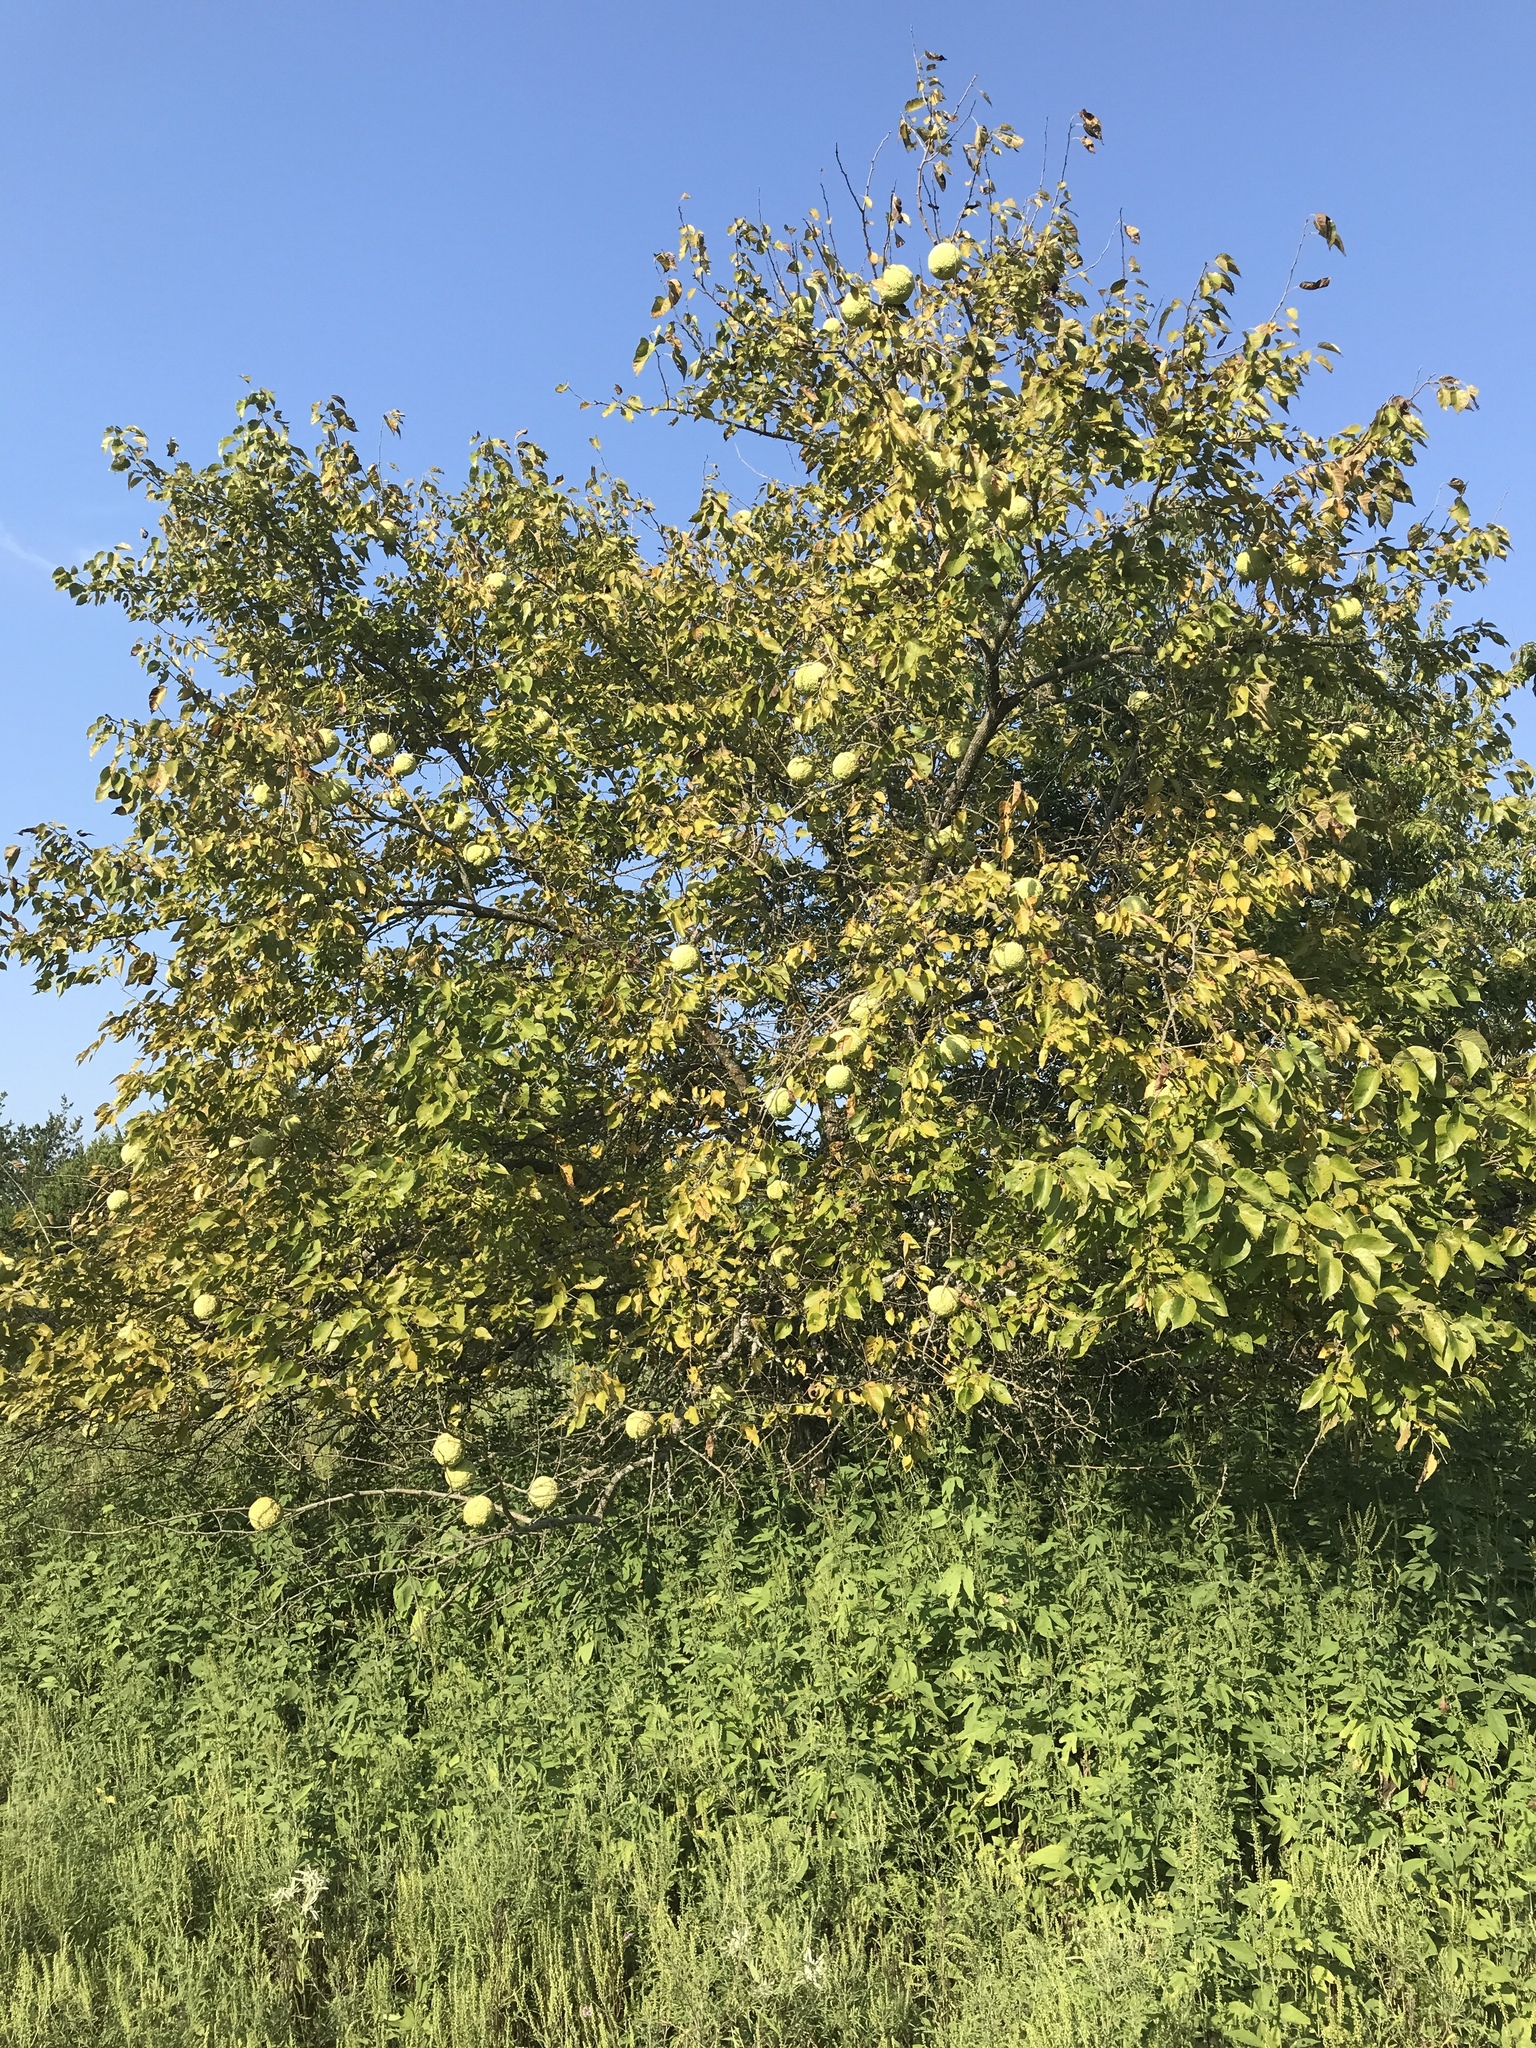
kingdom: Plantae
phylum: Tracheophyta
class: Magnoliopsida
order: Rosales
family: Moraceae
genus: Maclura
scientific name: Maclura pomifera
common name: Osage-orange
